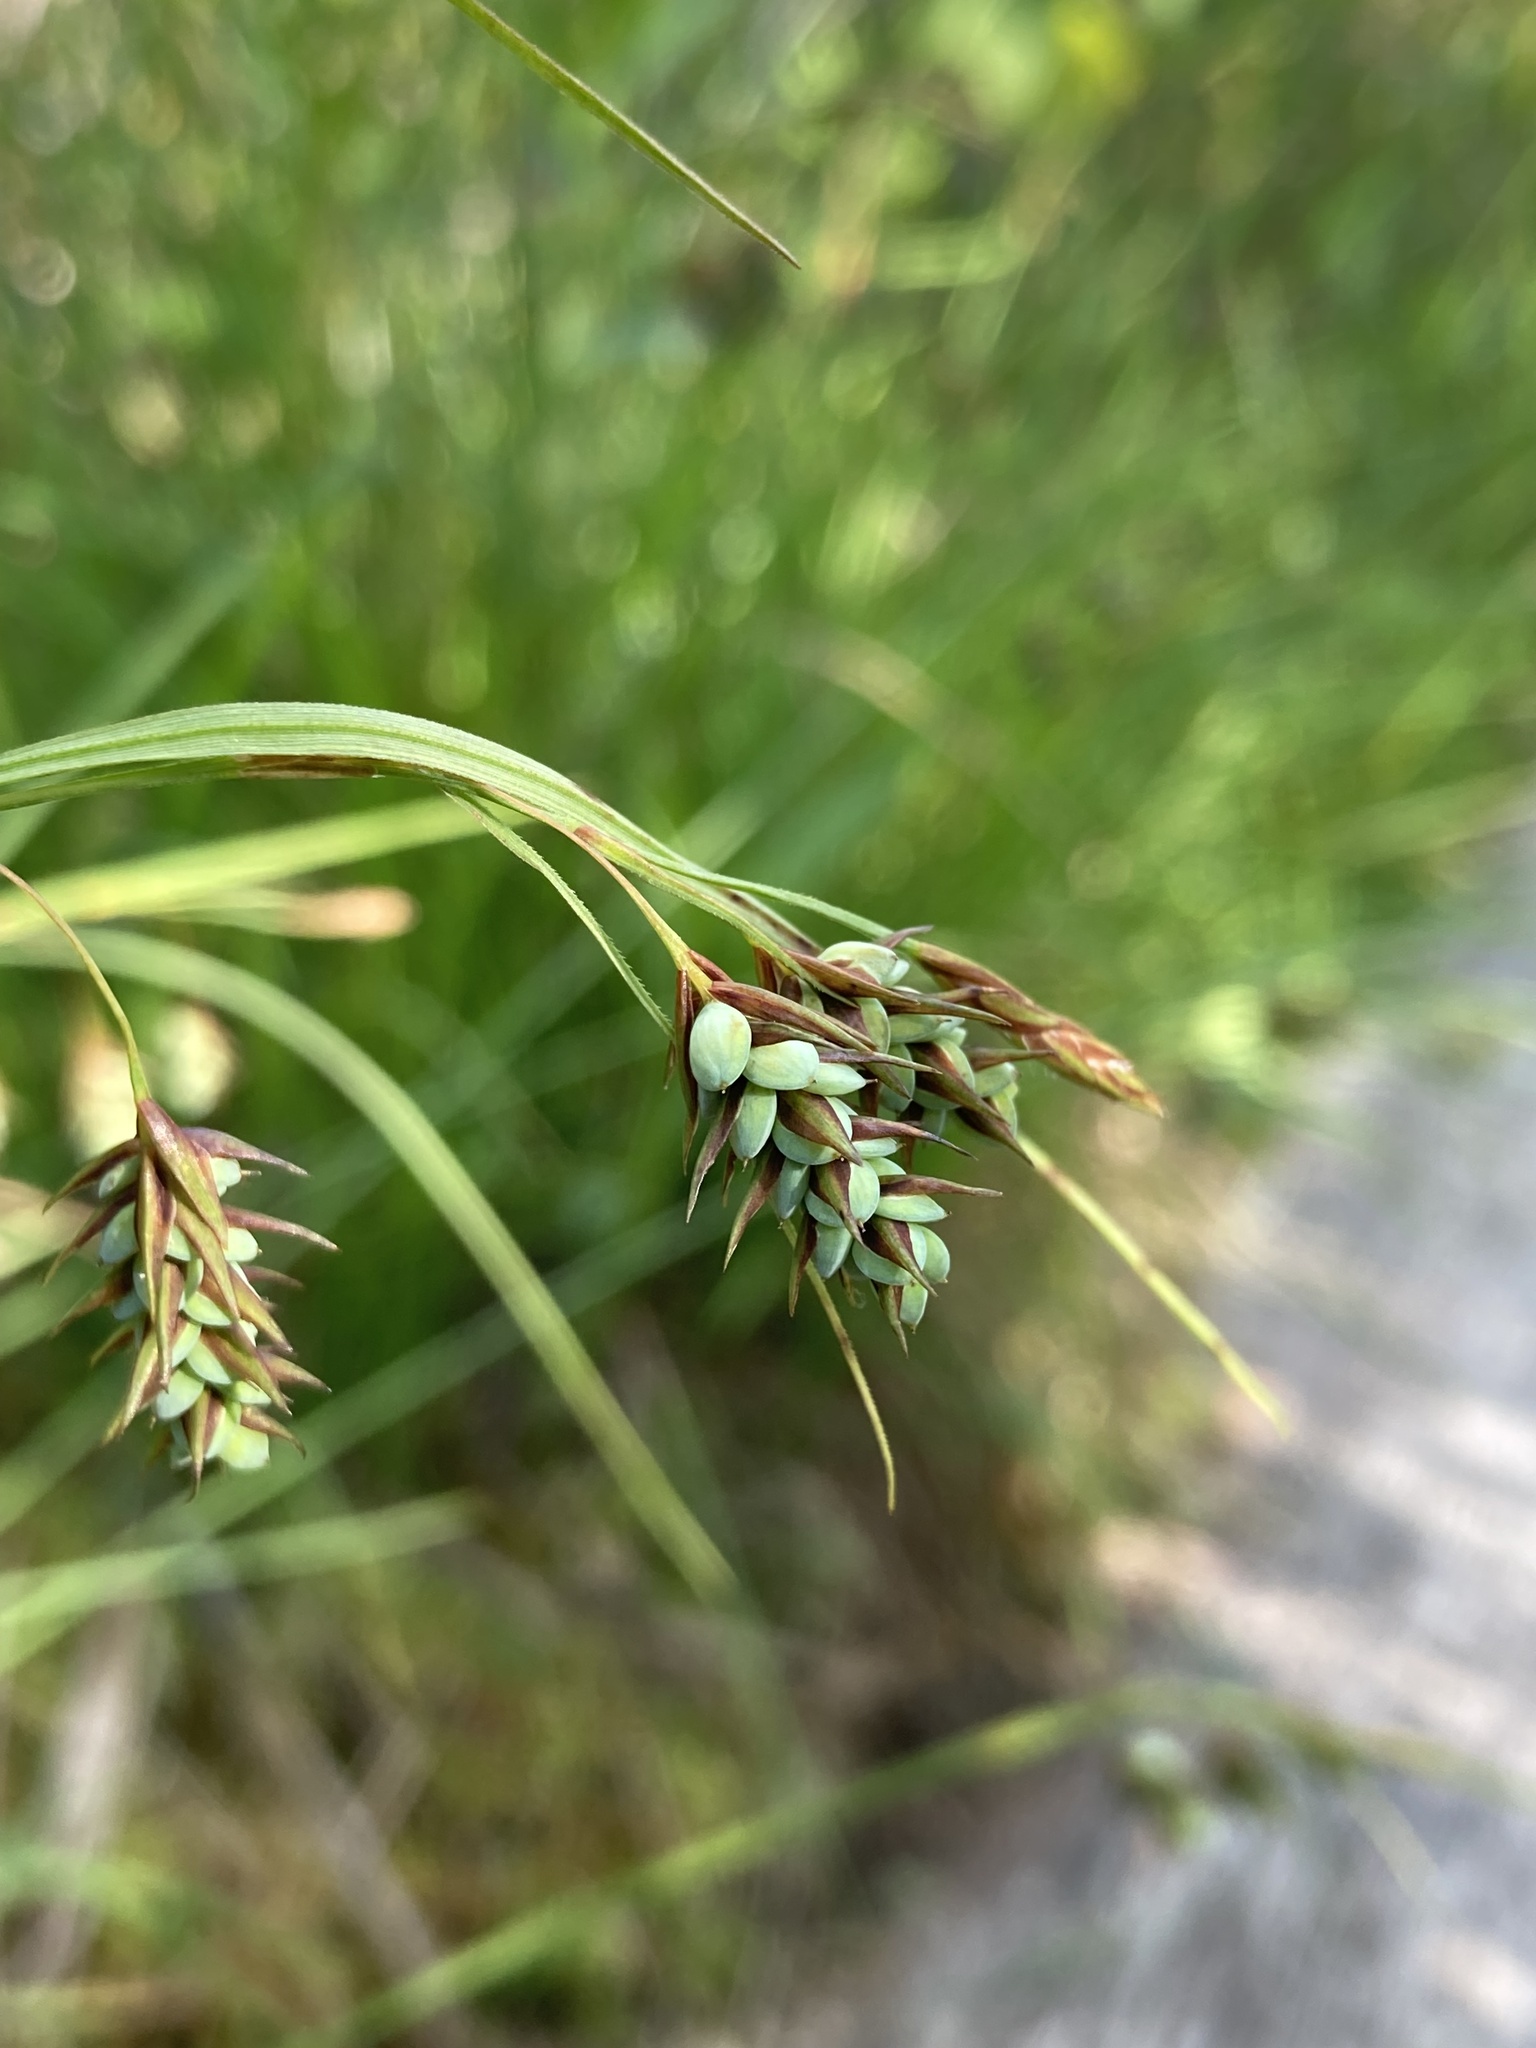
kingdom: Plantae
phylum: Tracheophyta
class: Liliopsida
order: Poales
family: Cyperaceae
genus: Carex
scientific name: Carex magellanica
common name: Bog sedge
